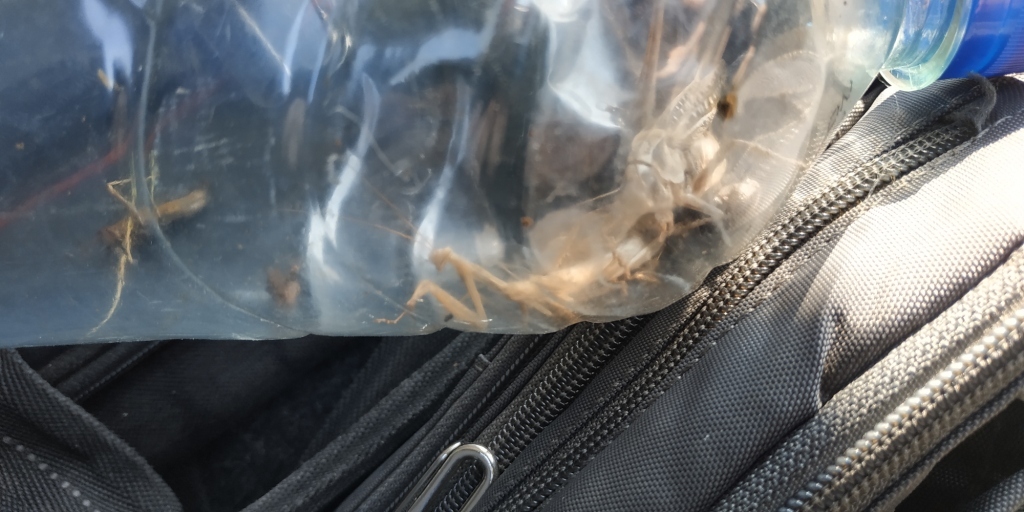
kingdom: Animalia
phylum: Arthropoda
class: Insecta
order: Mantodea
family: Mantidae
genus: Mantis
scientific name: Mantis religiosa
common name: Praying mantis
